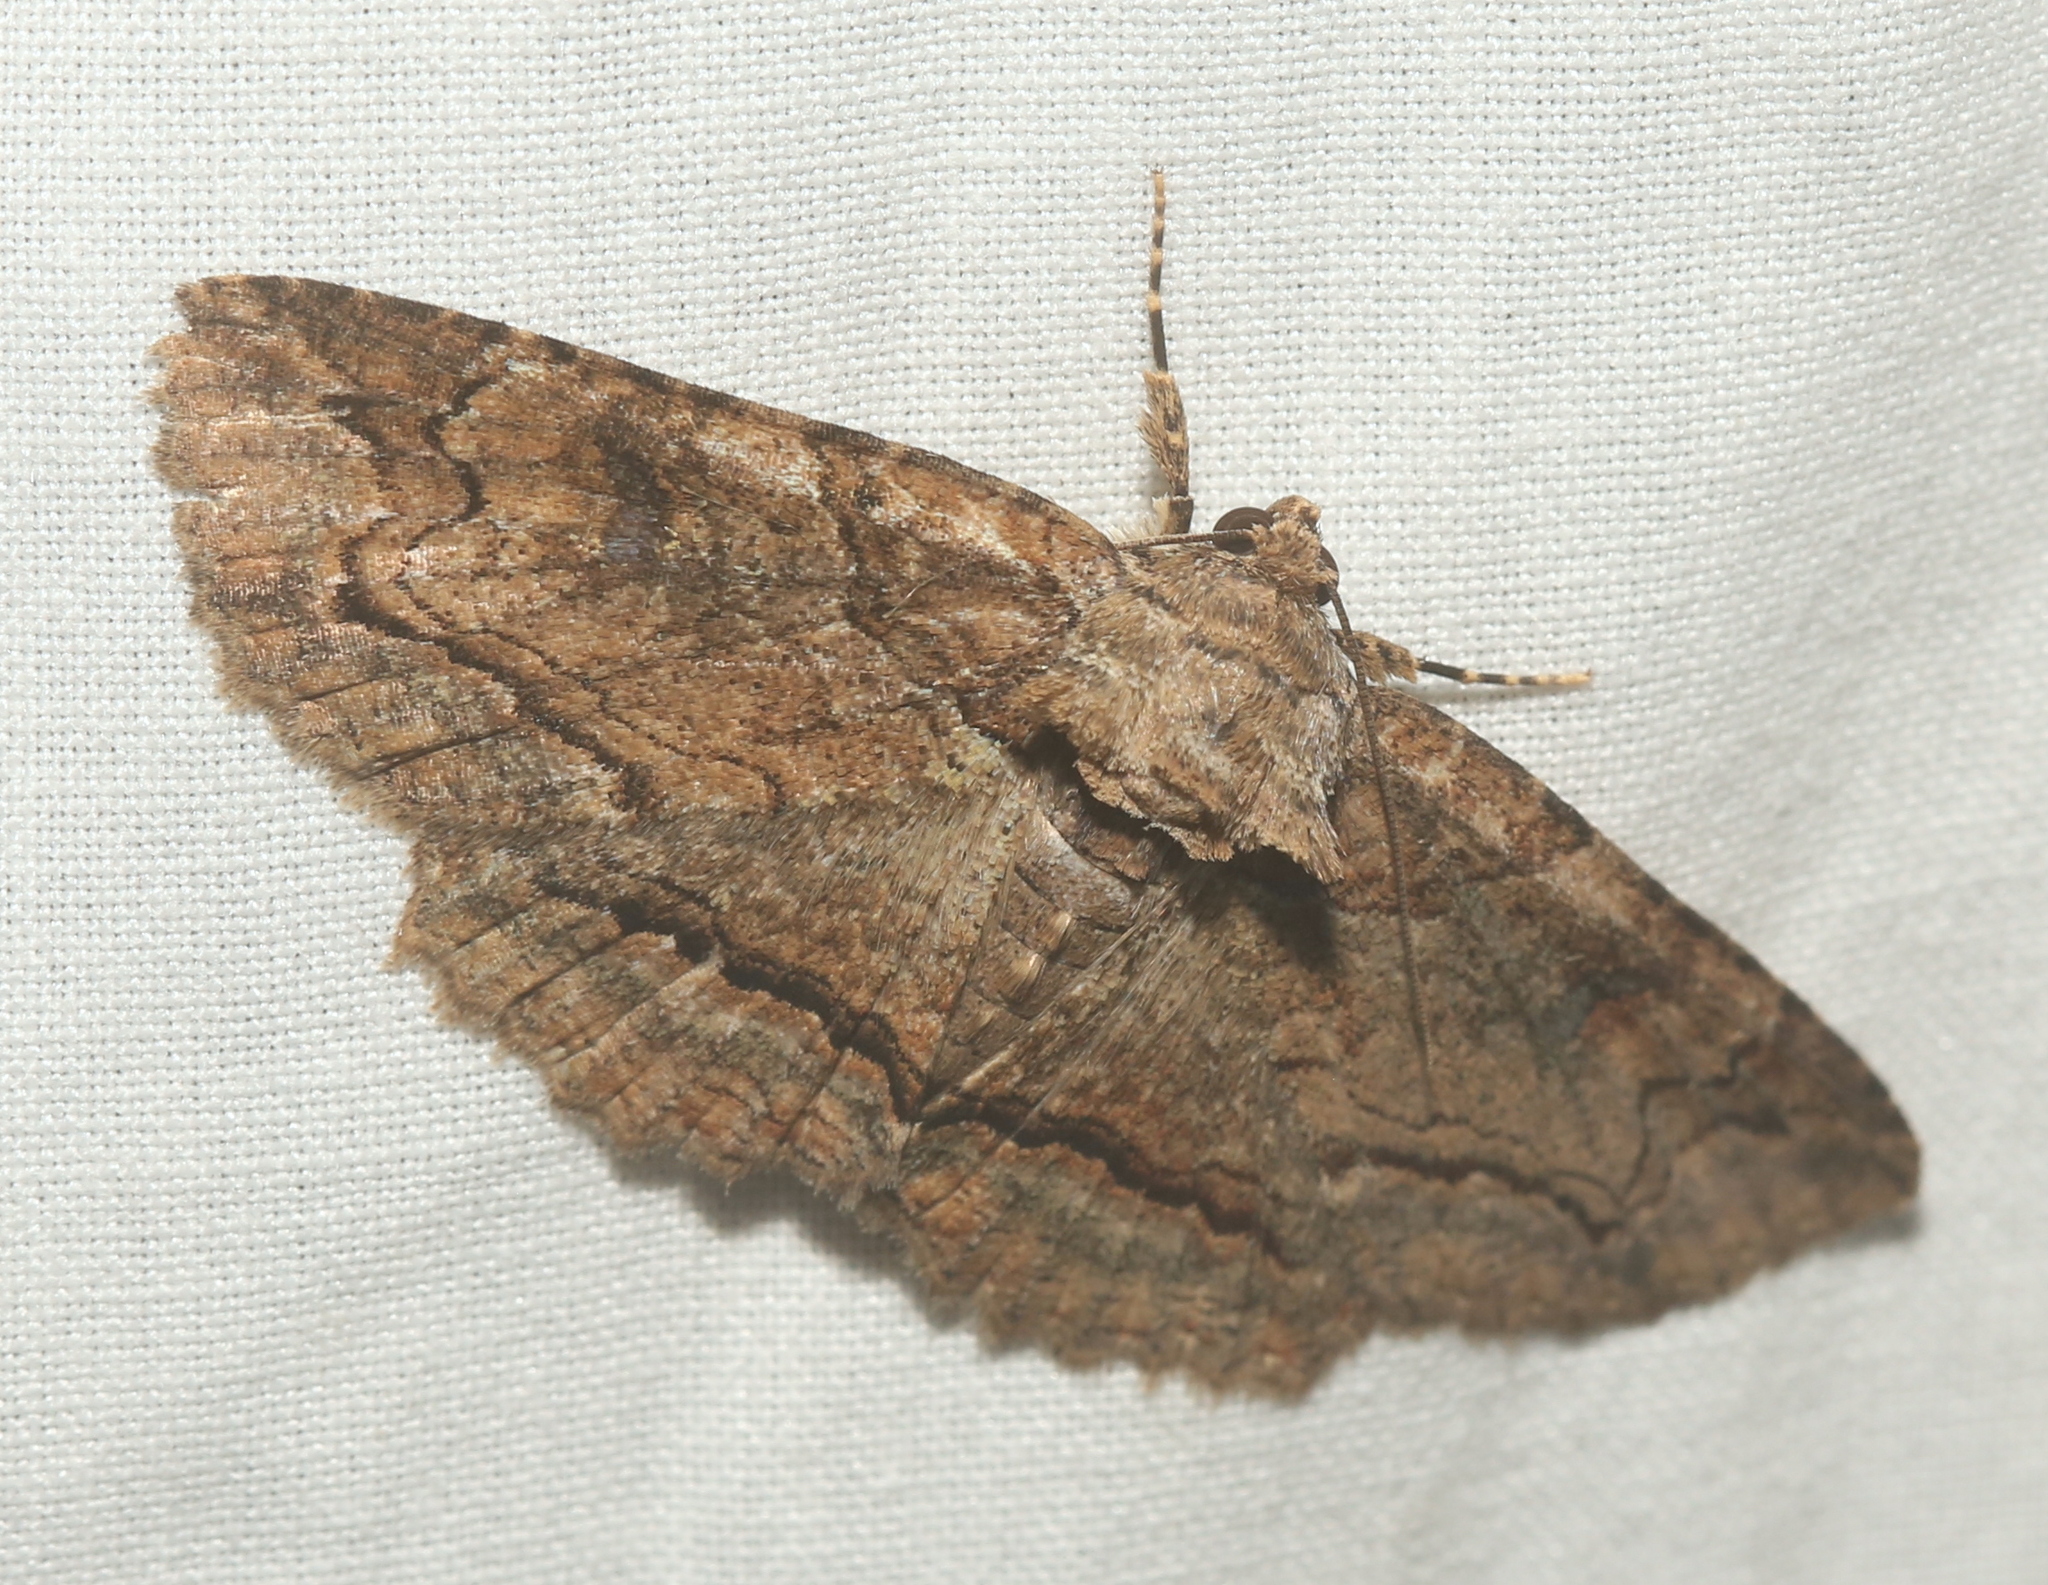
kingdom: Animalia
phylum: Arthropoda
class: Insecta
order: Lepidoptera
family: Erebidae
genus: Zale
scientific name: Zale galbanata
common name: Maple zale
